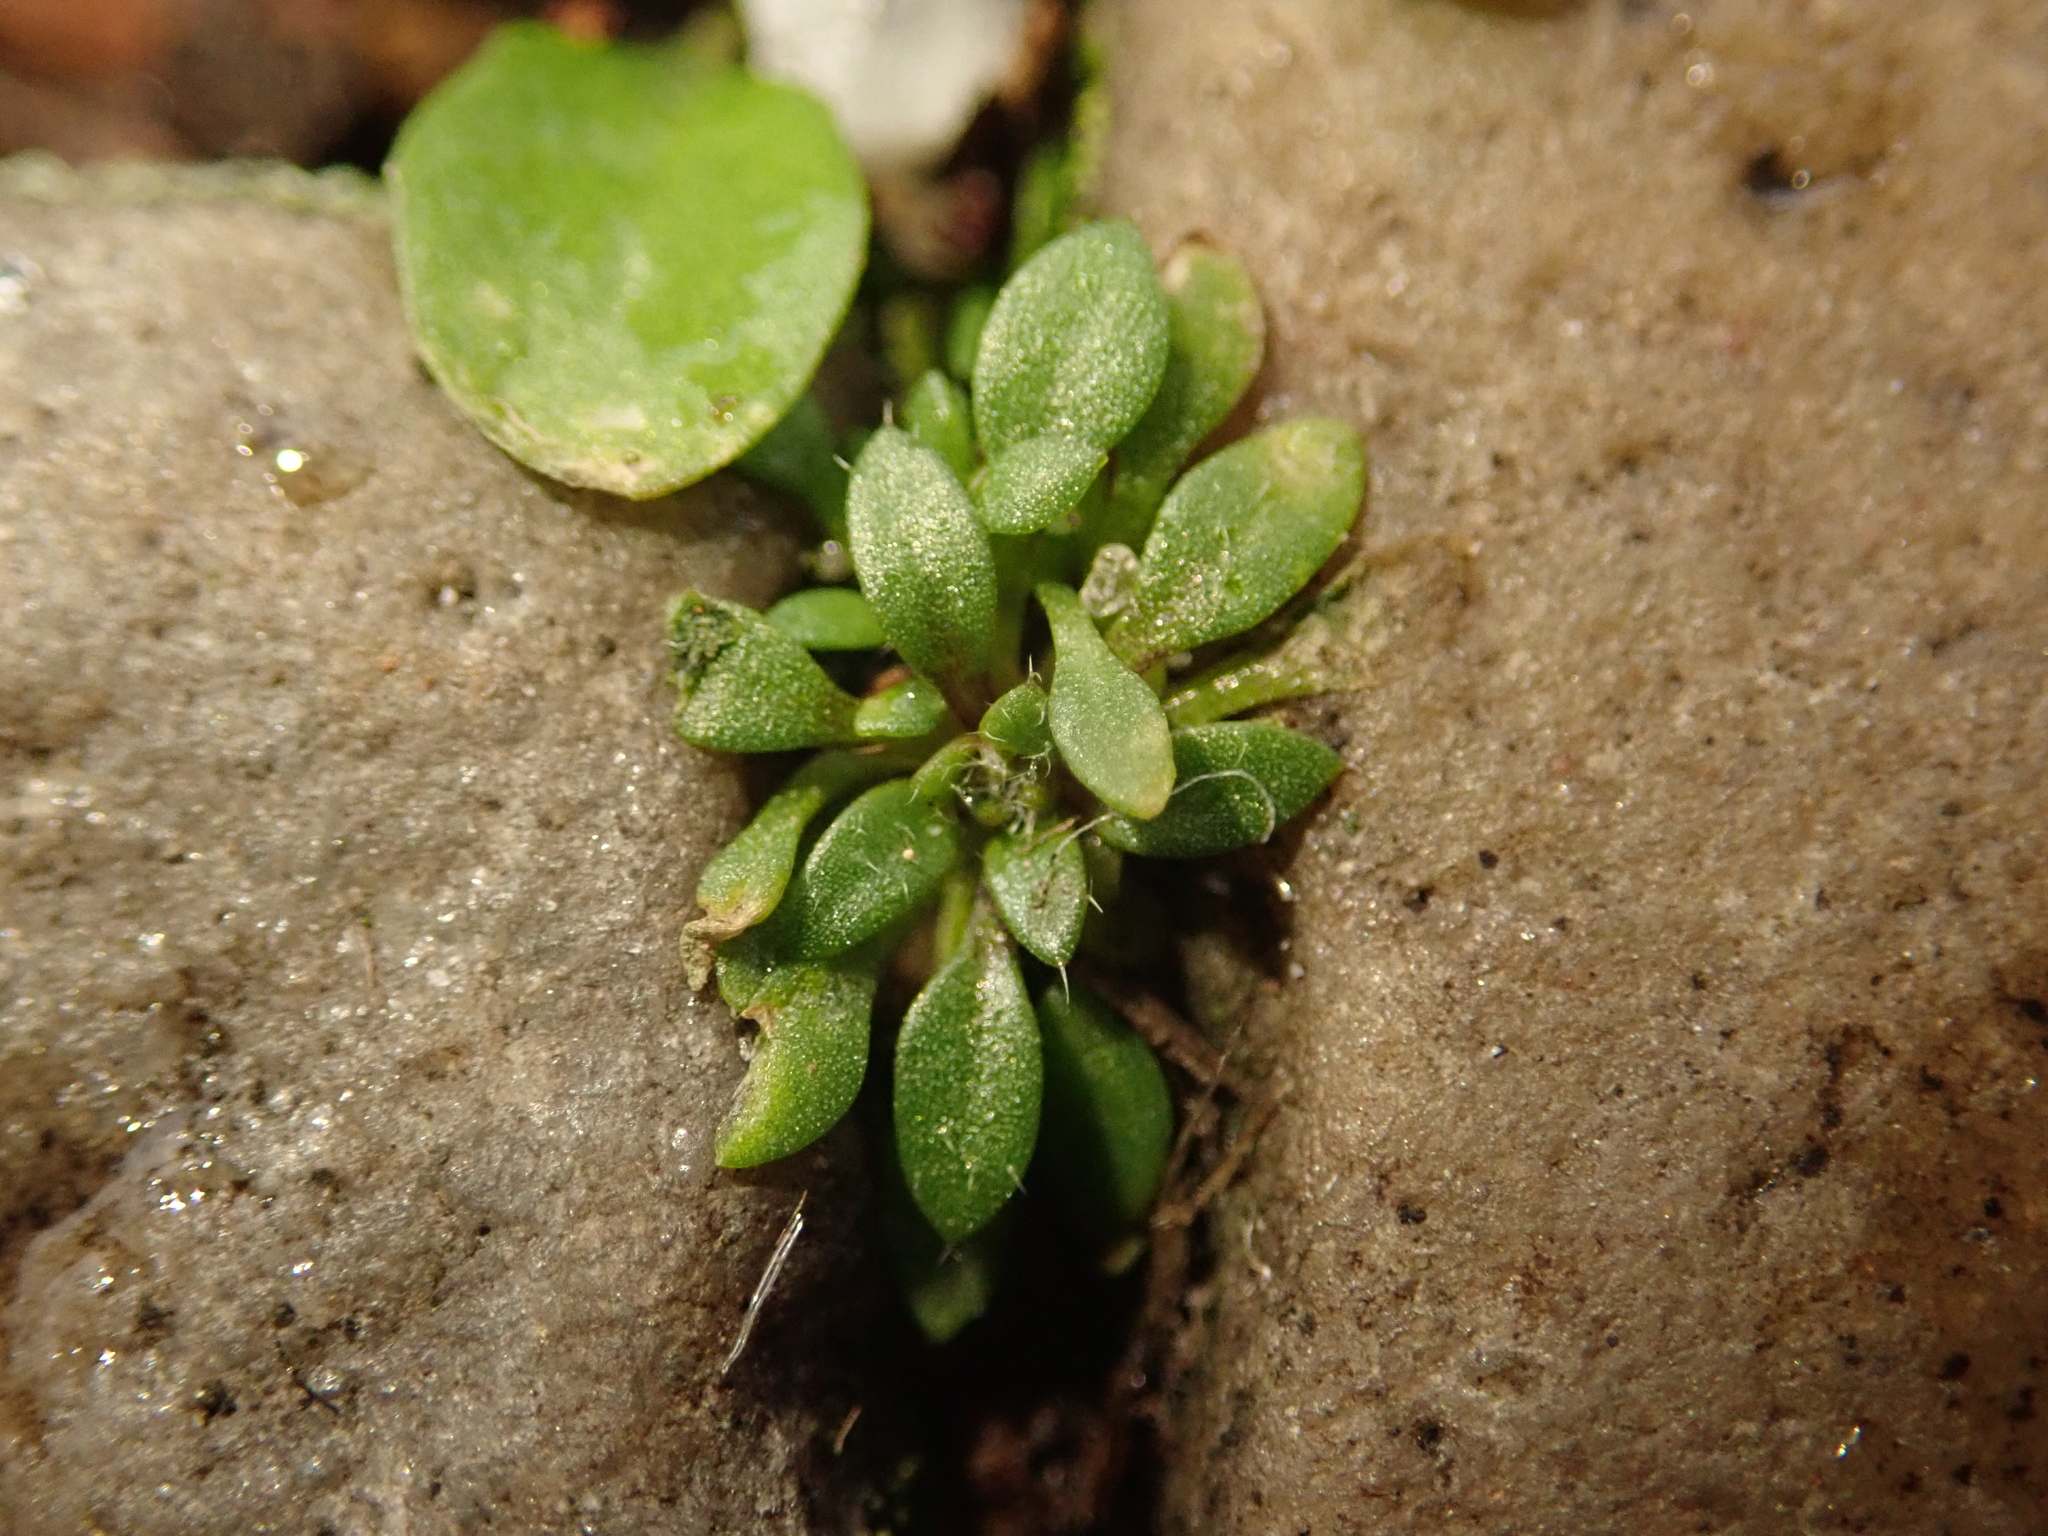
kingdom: Plantae
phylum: Tracheophyta
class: Magnoliopsida
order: Brassicales
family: Brassicaceae
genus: Draba
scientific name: Draba verna
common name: Spring draba
